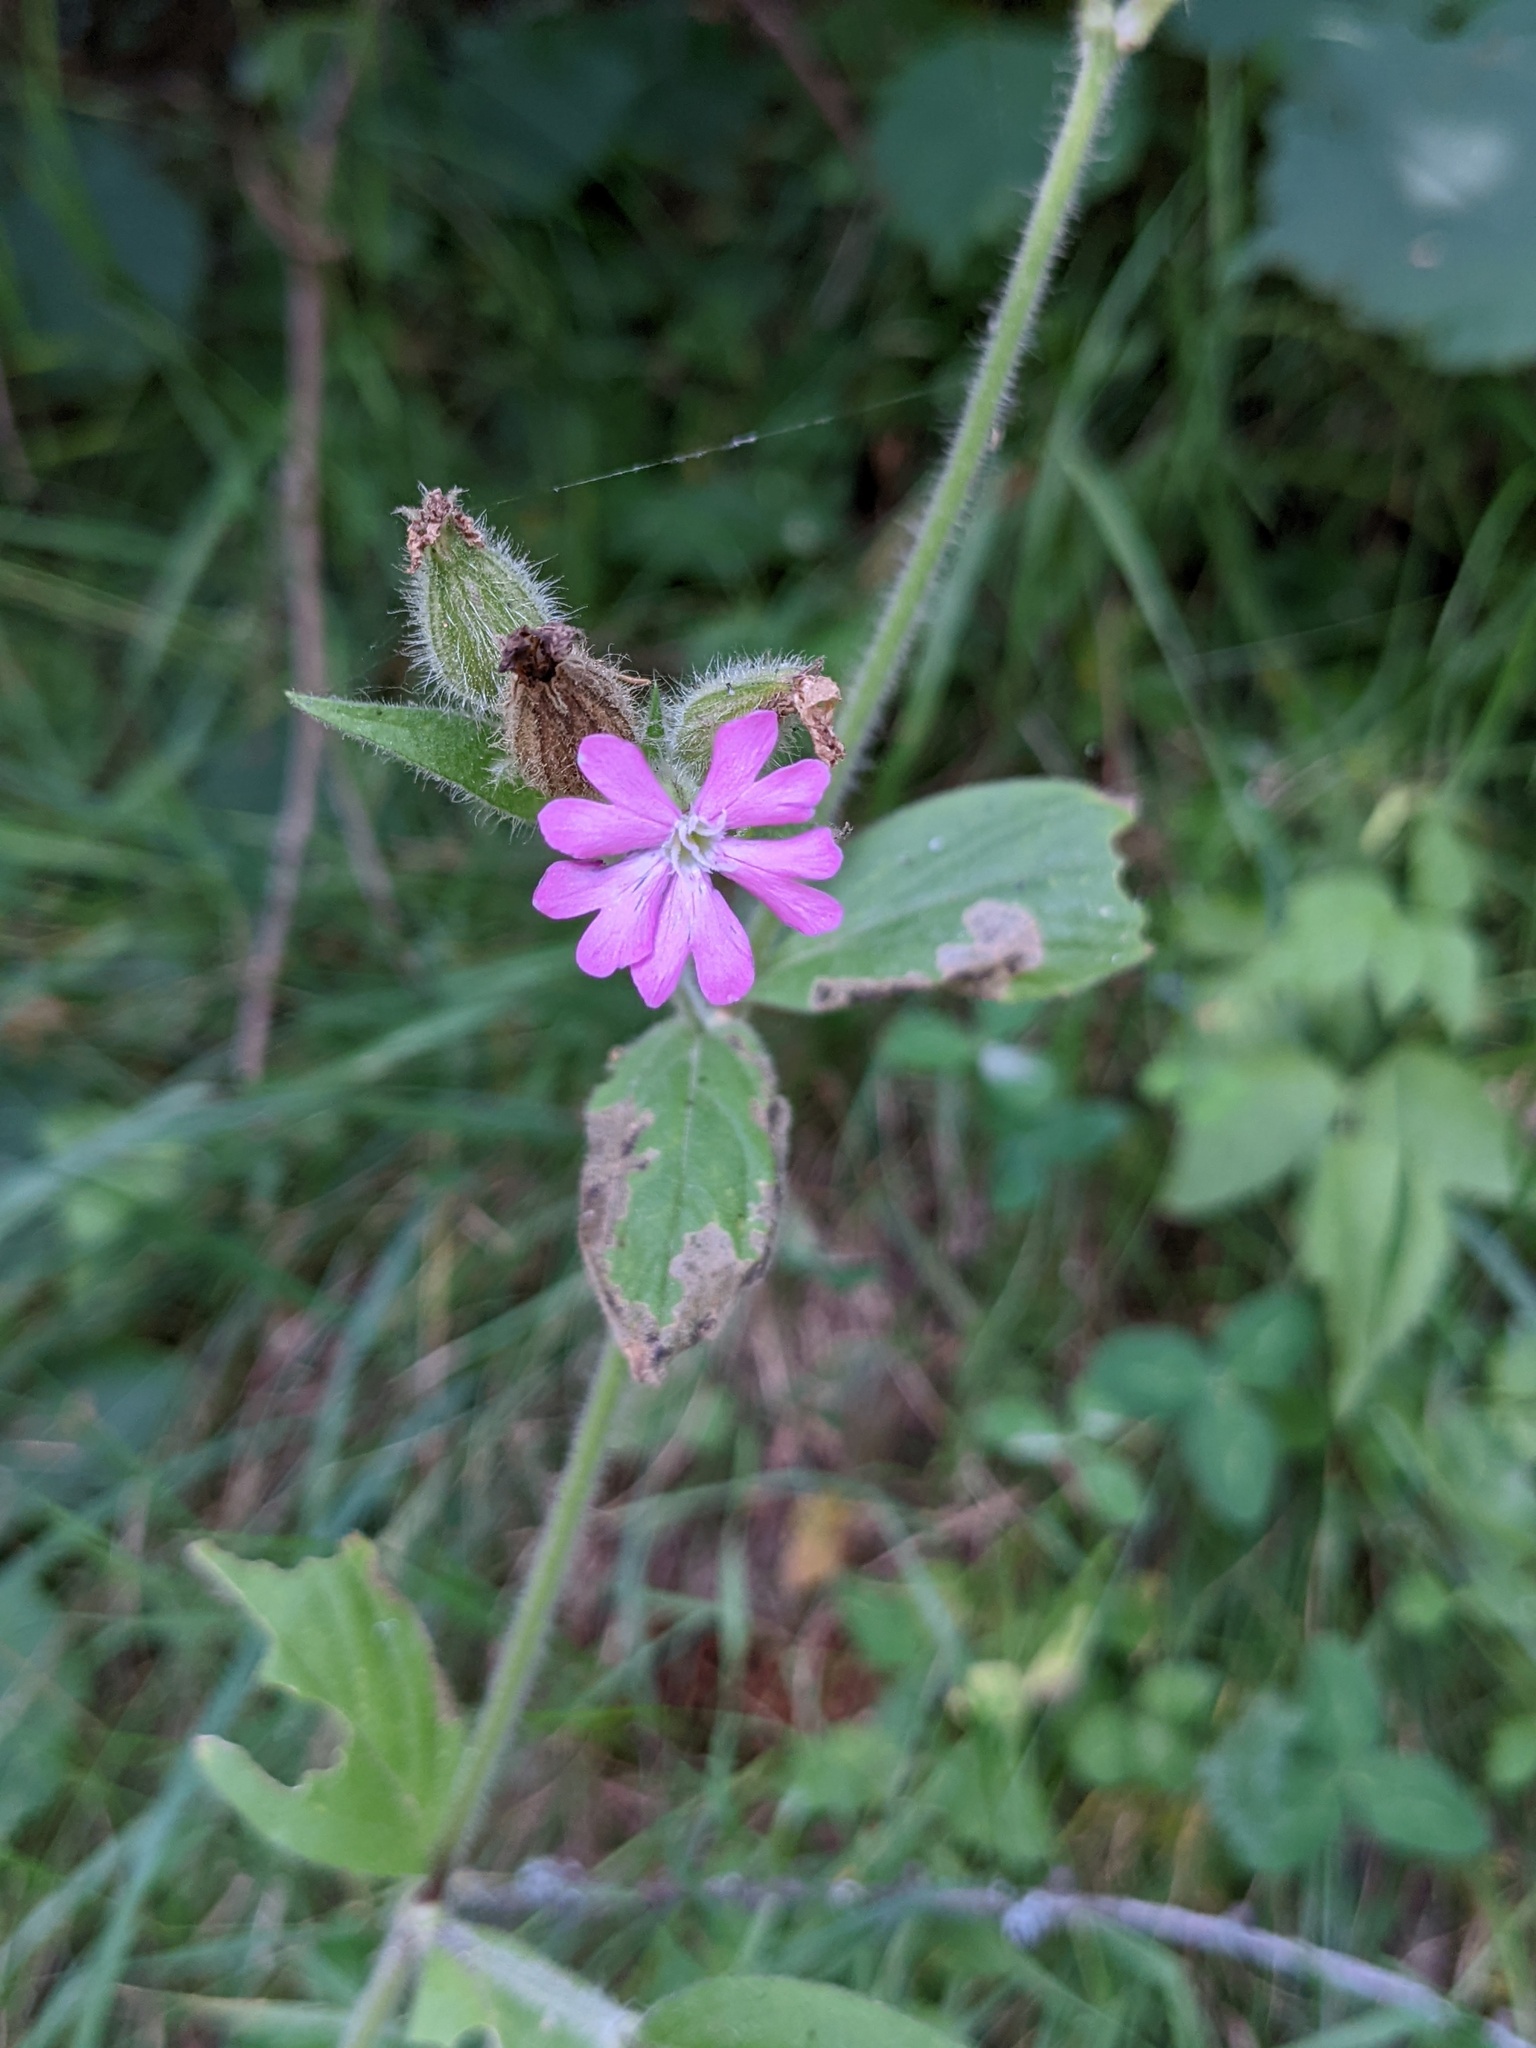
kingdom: Plantae
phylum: Tracheophyta
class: Magnoliopsida
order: Caryophyllales
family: Caryophyllaceae
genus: Silene
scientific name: Silene dioica
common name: Red campion
